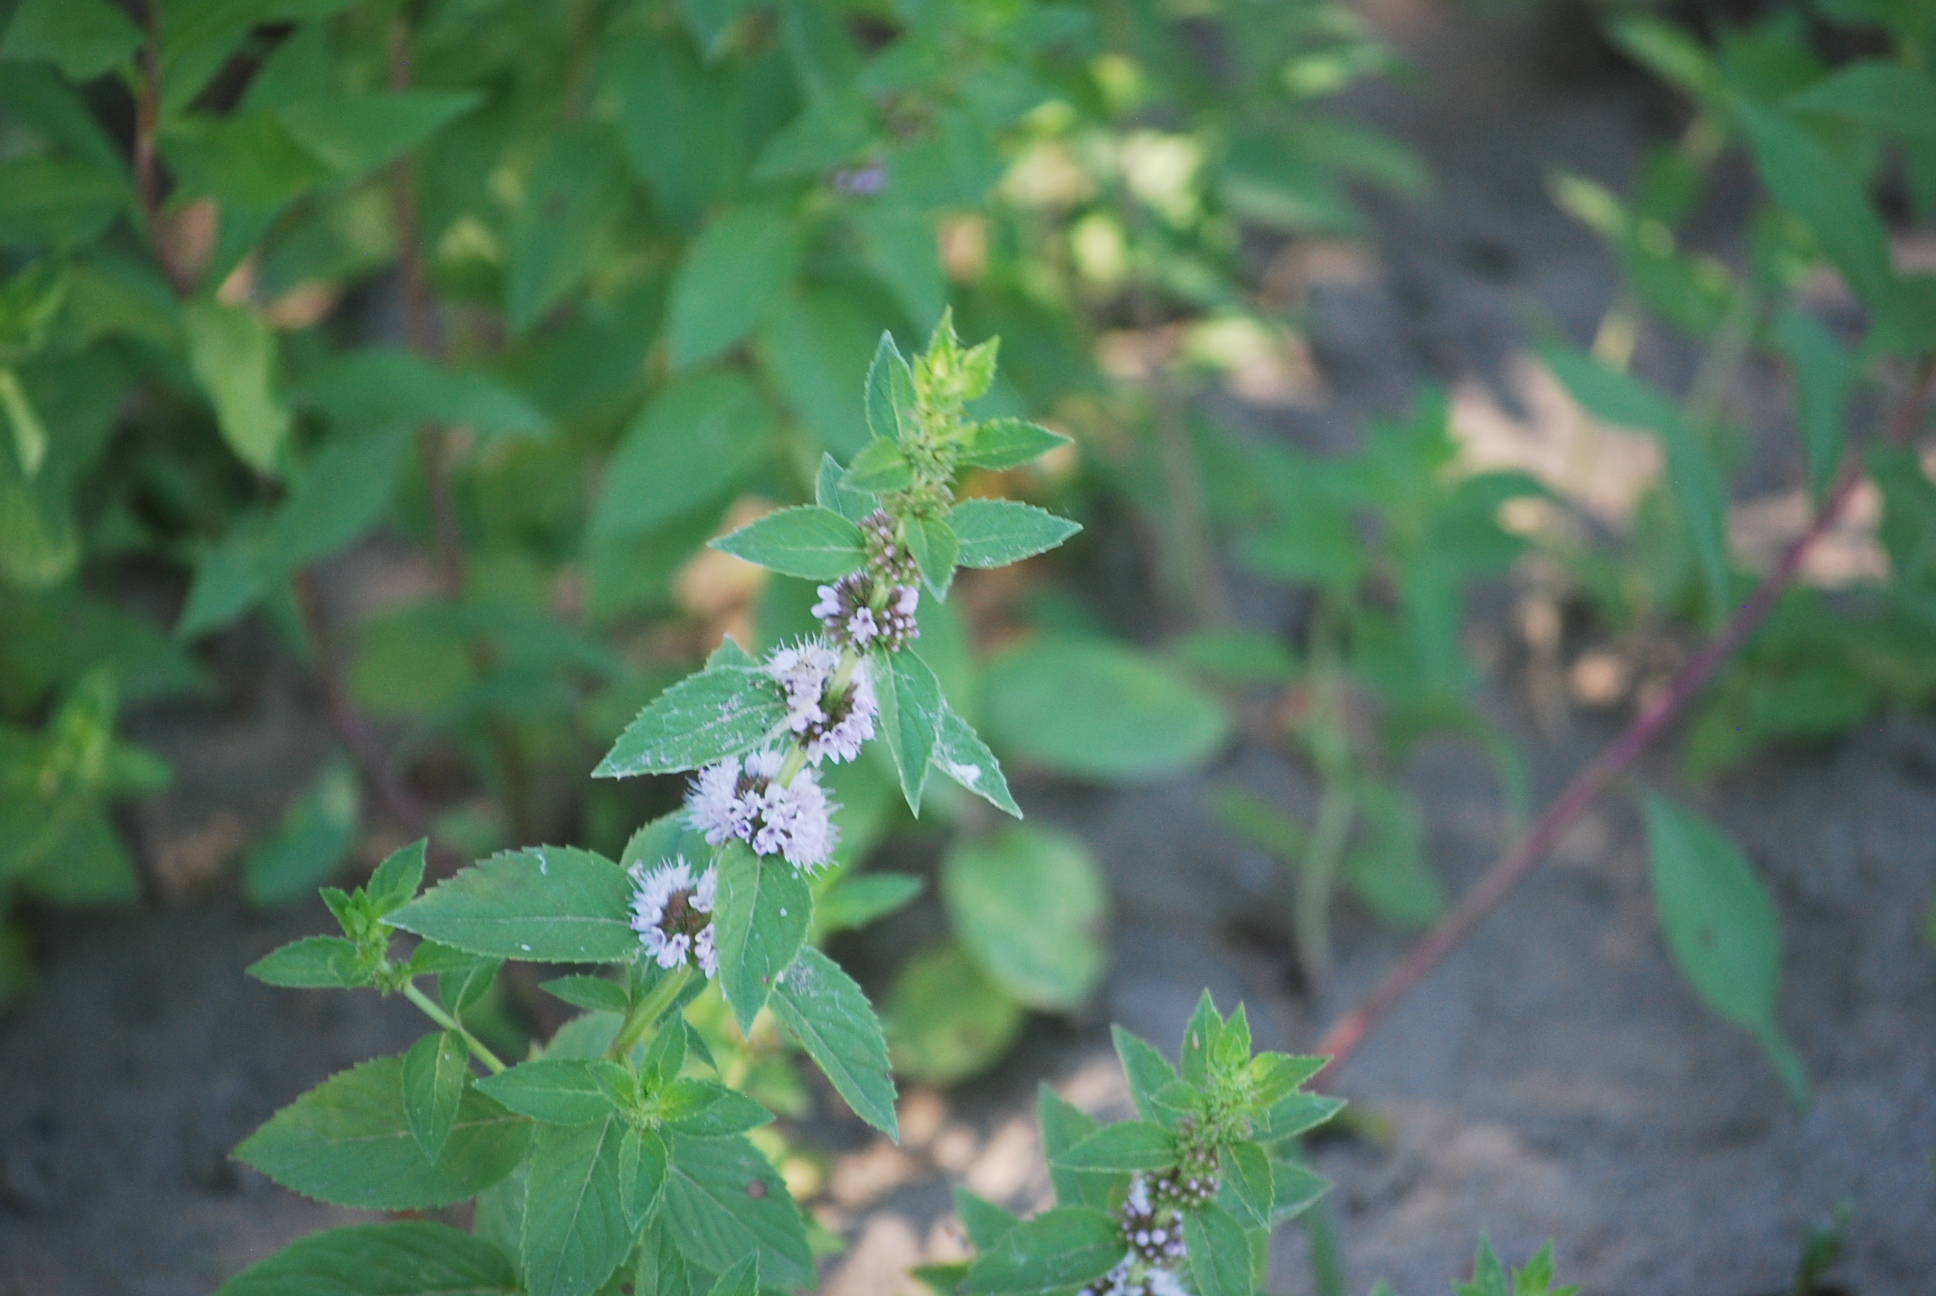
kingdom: Plantae
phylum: Tracheophyta
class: Magnoliopsida
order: Lamiales
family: Lamiaceae
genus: Mentha
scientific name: Mentha canadensis
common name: American corn mint
